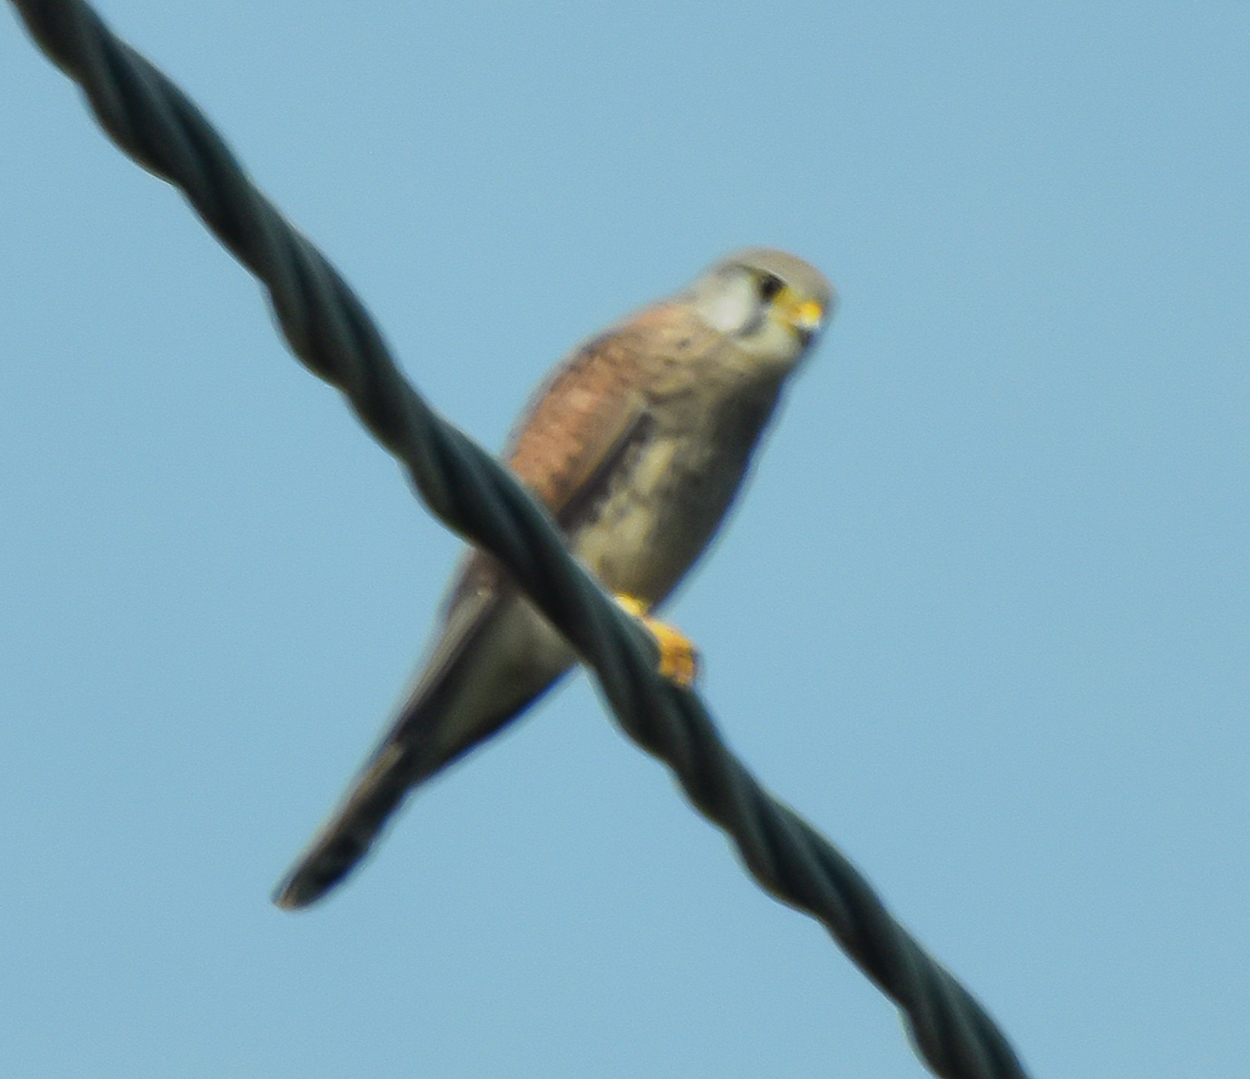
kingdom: Animalia
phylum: Chordata
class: Aves
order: Falconiformes
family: Falconidae
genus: Falco
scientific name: Falco tinnunculus
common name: Common kestrel
